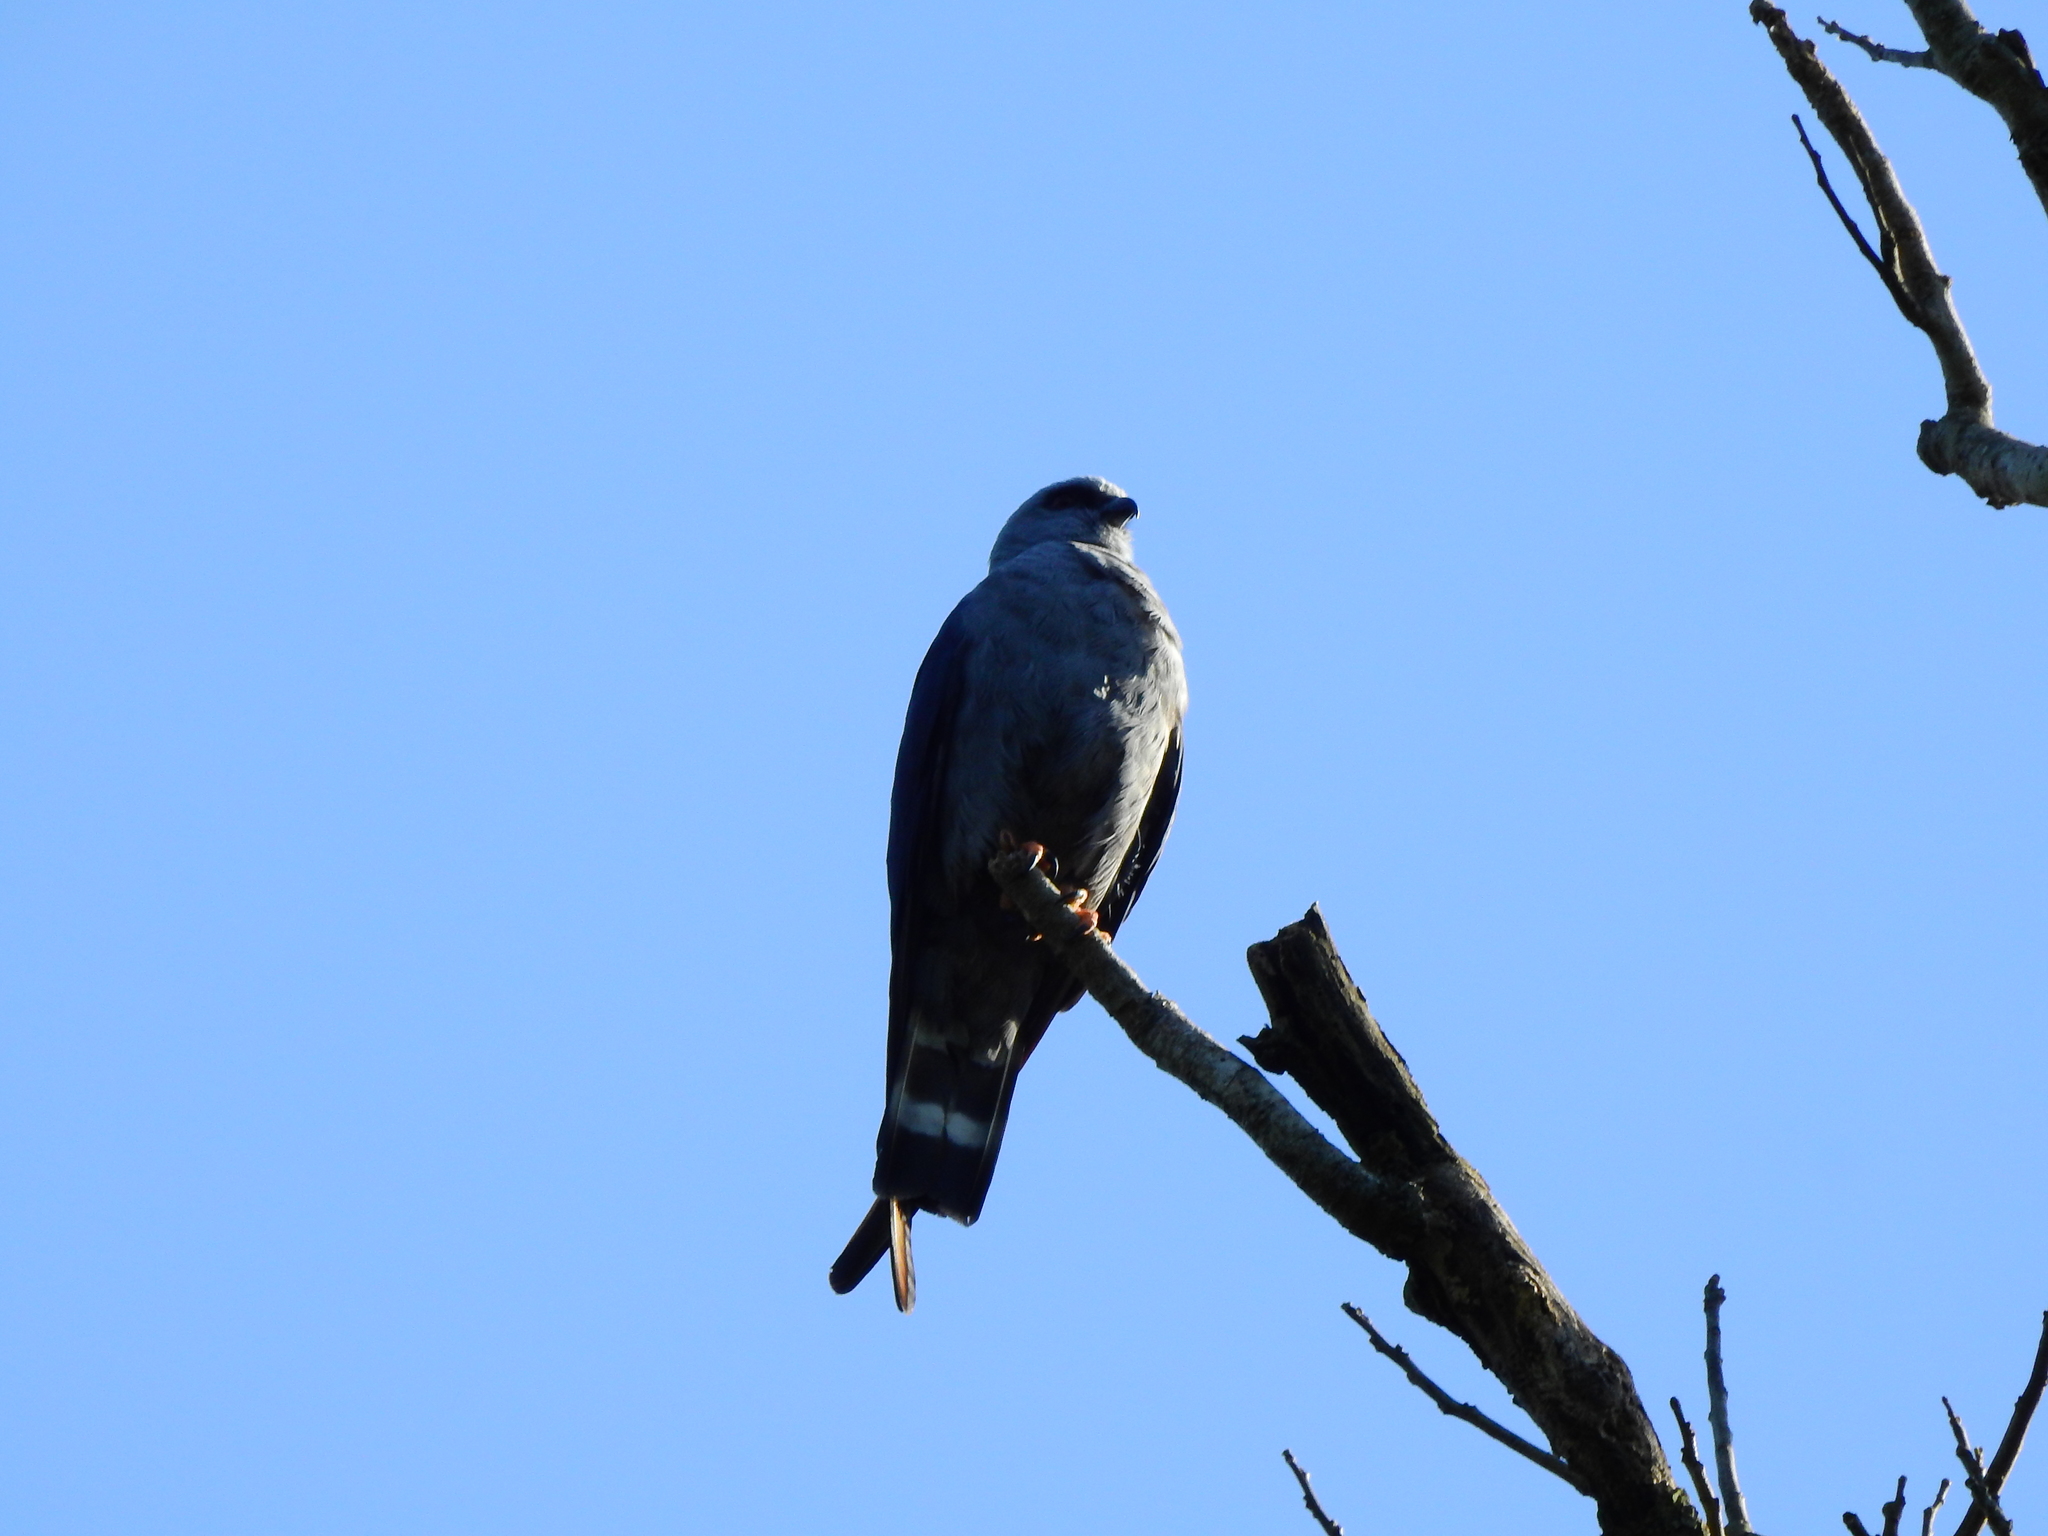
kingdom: Animalia
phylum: Chordata
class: Aves
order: Accipitriformes
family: Accipitridae
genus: Ictinia
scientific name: Ictinia plumbea
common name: Plumbeous kite
